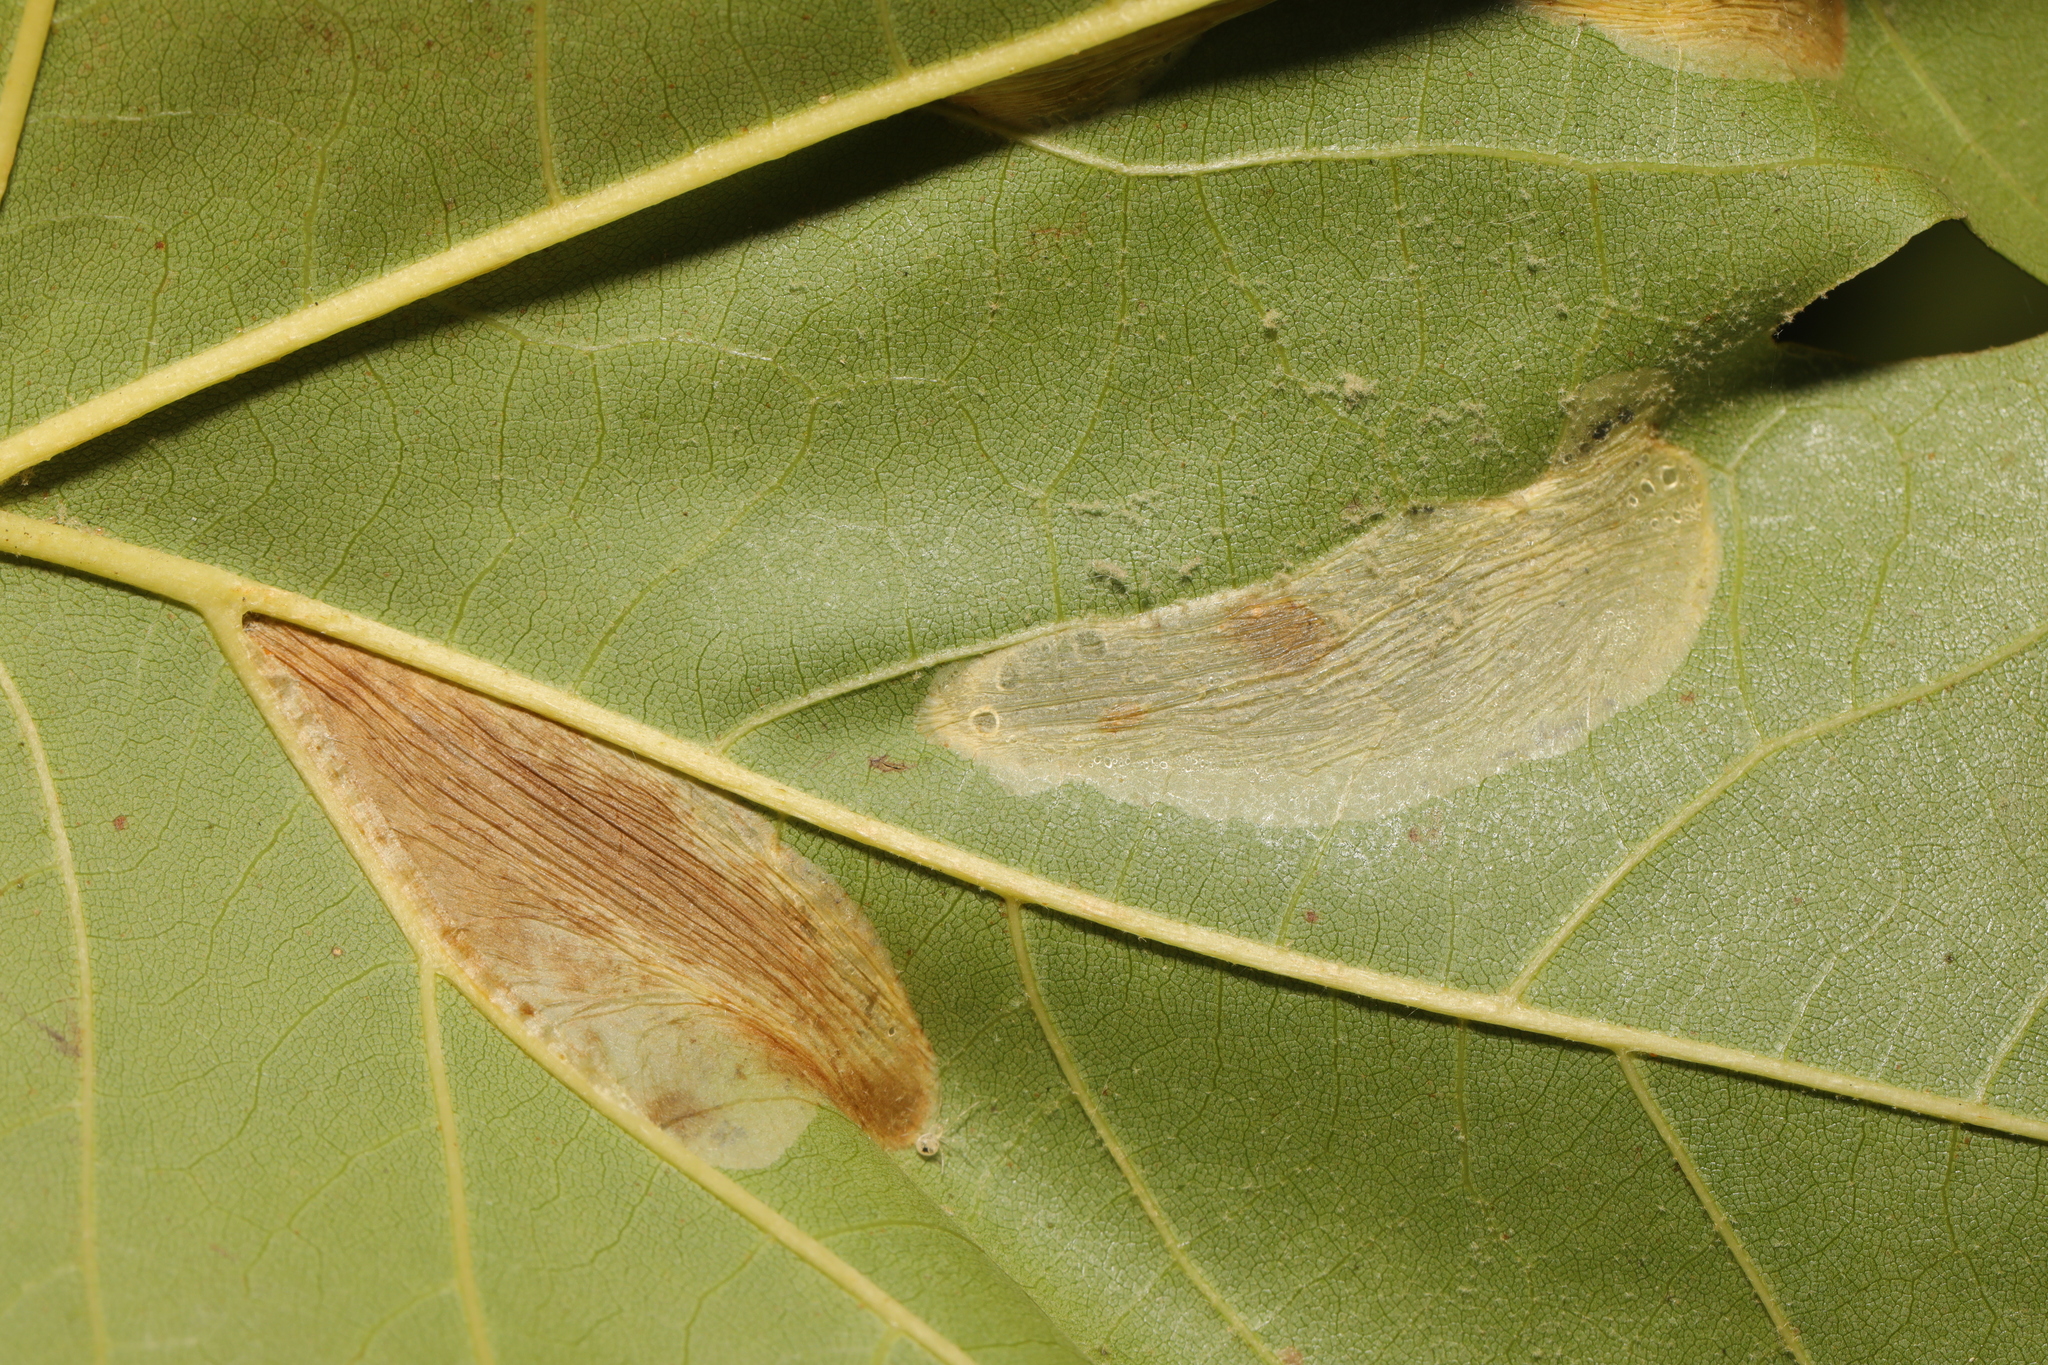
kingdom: Animalia
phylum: Arthropoda
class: Insecta
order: Lepidoptera
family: Gracillariidae
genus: Phyllonorycter
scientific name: Phyllonorycter platani
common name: London midget
